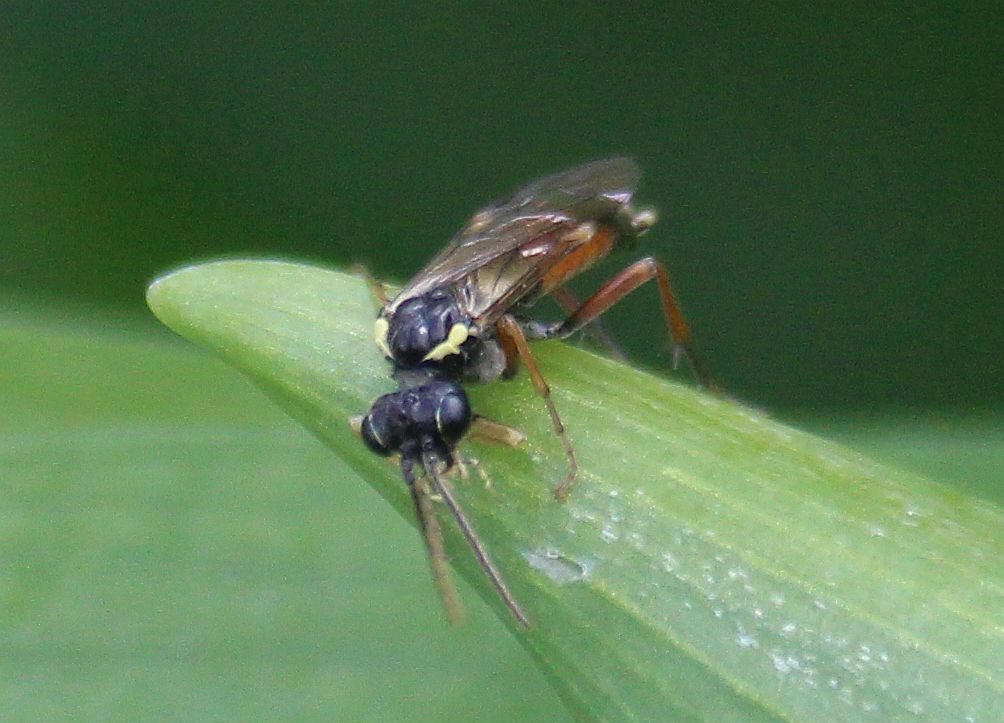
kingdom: Animalia
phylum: Arthropoda
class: Insecta
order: Hymenoptera
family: Tenthredinidae
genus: Aglaostigma
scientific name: Aglaostigma aucupariae
